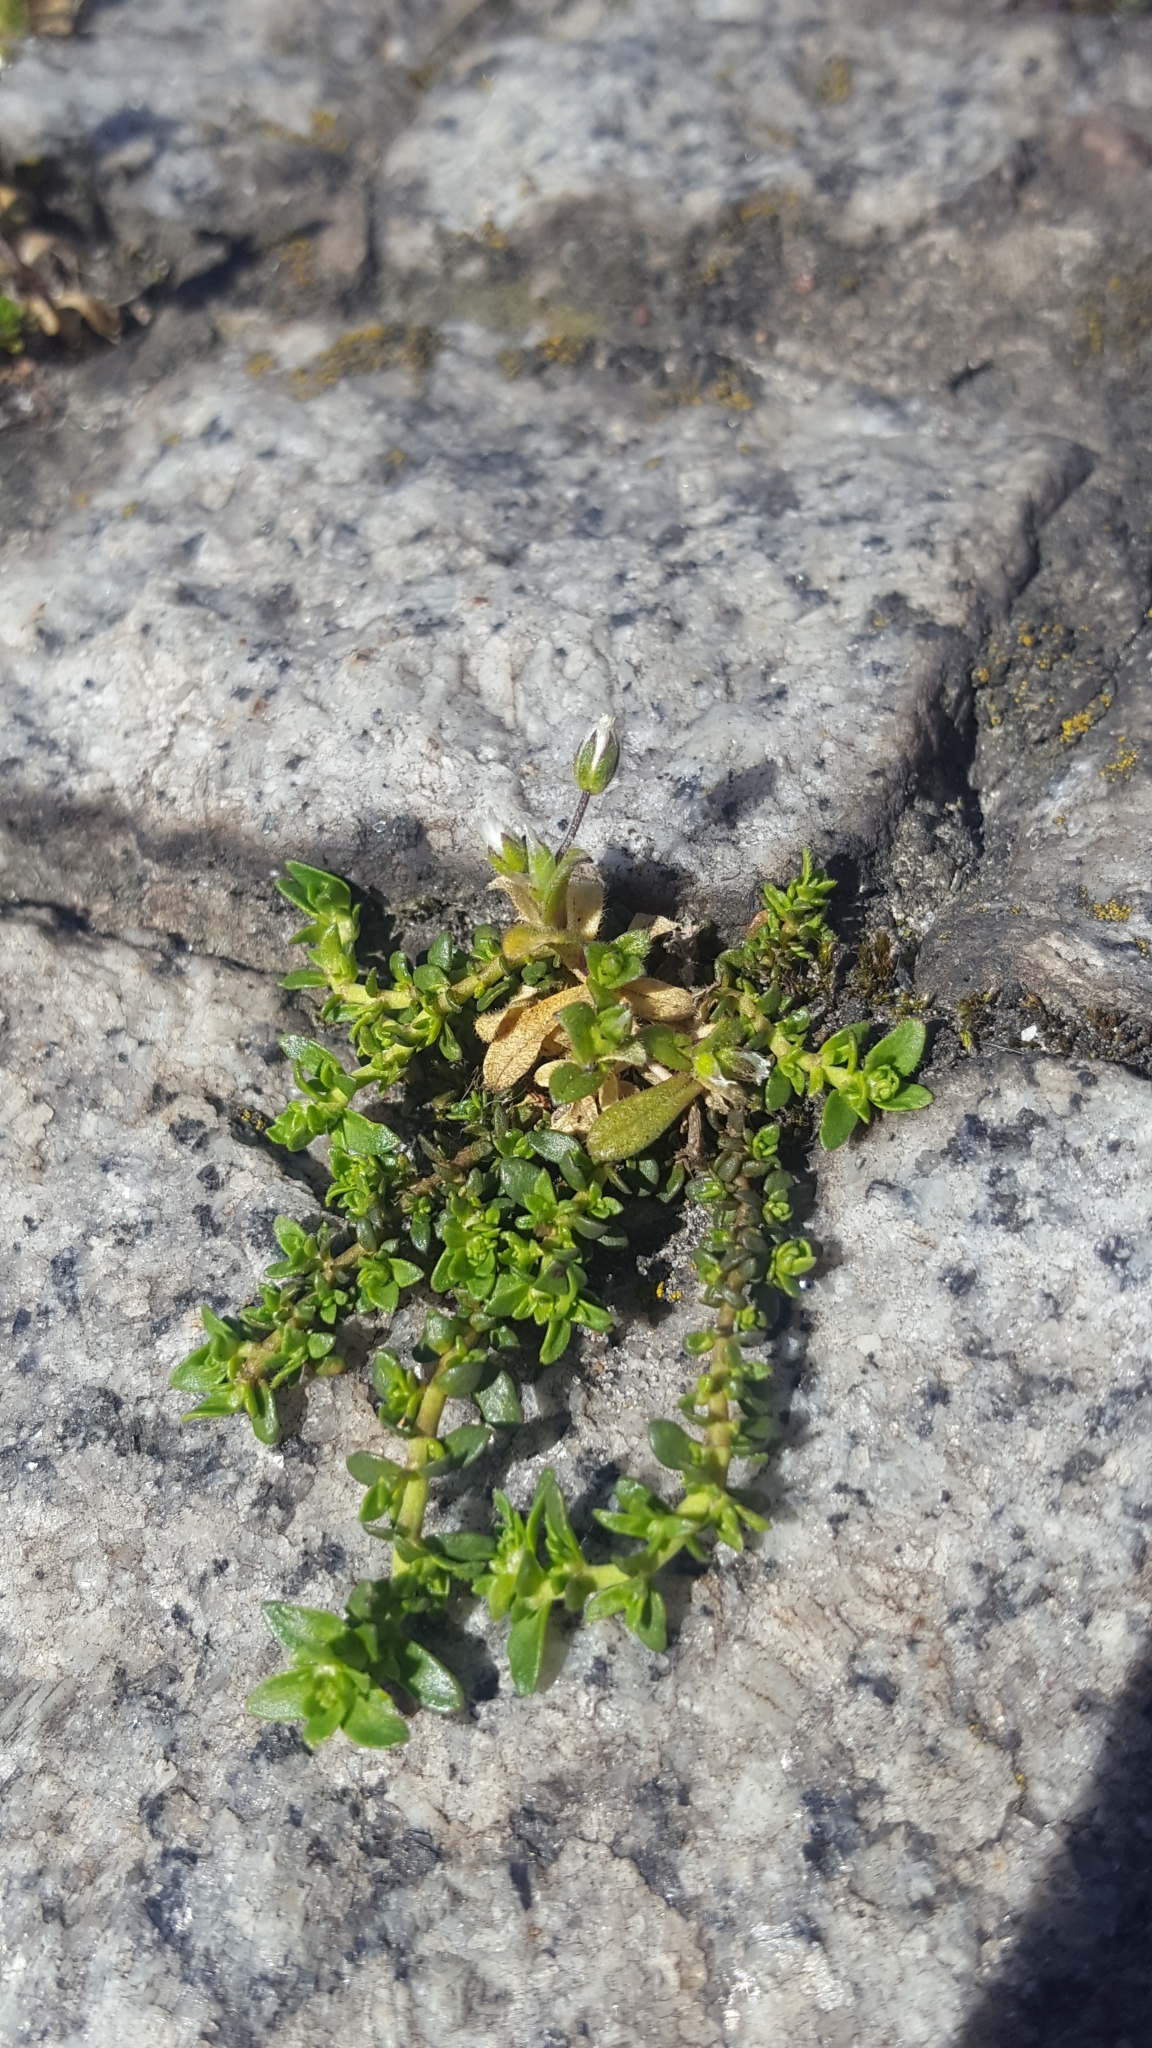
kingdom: Plantae
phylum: Tracheophyta
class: Magnoliopsida
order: Caryophyllales
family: Caryophyllaceae
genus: Herniaria
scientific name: Herniaria glabra
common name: Smooth rupturewort
